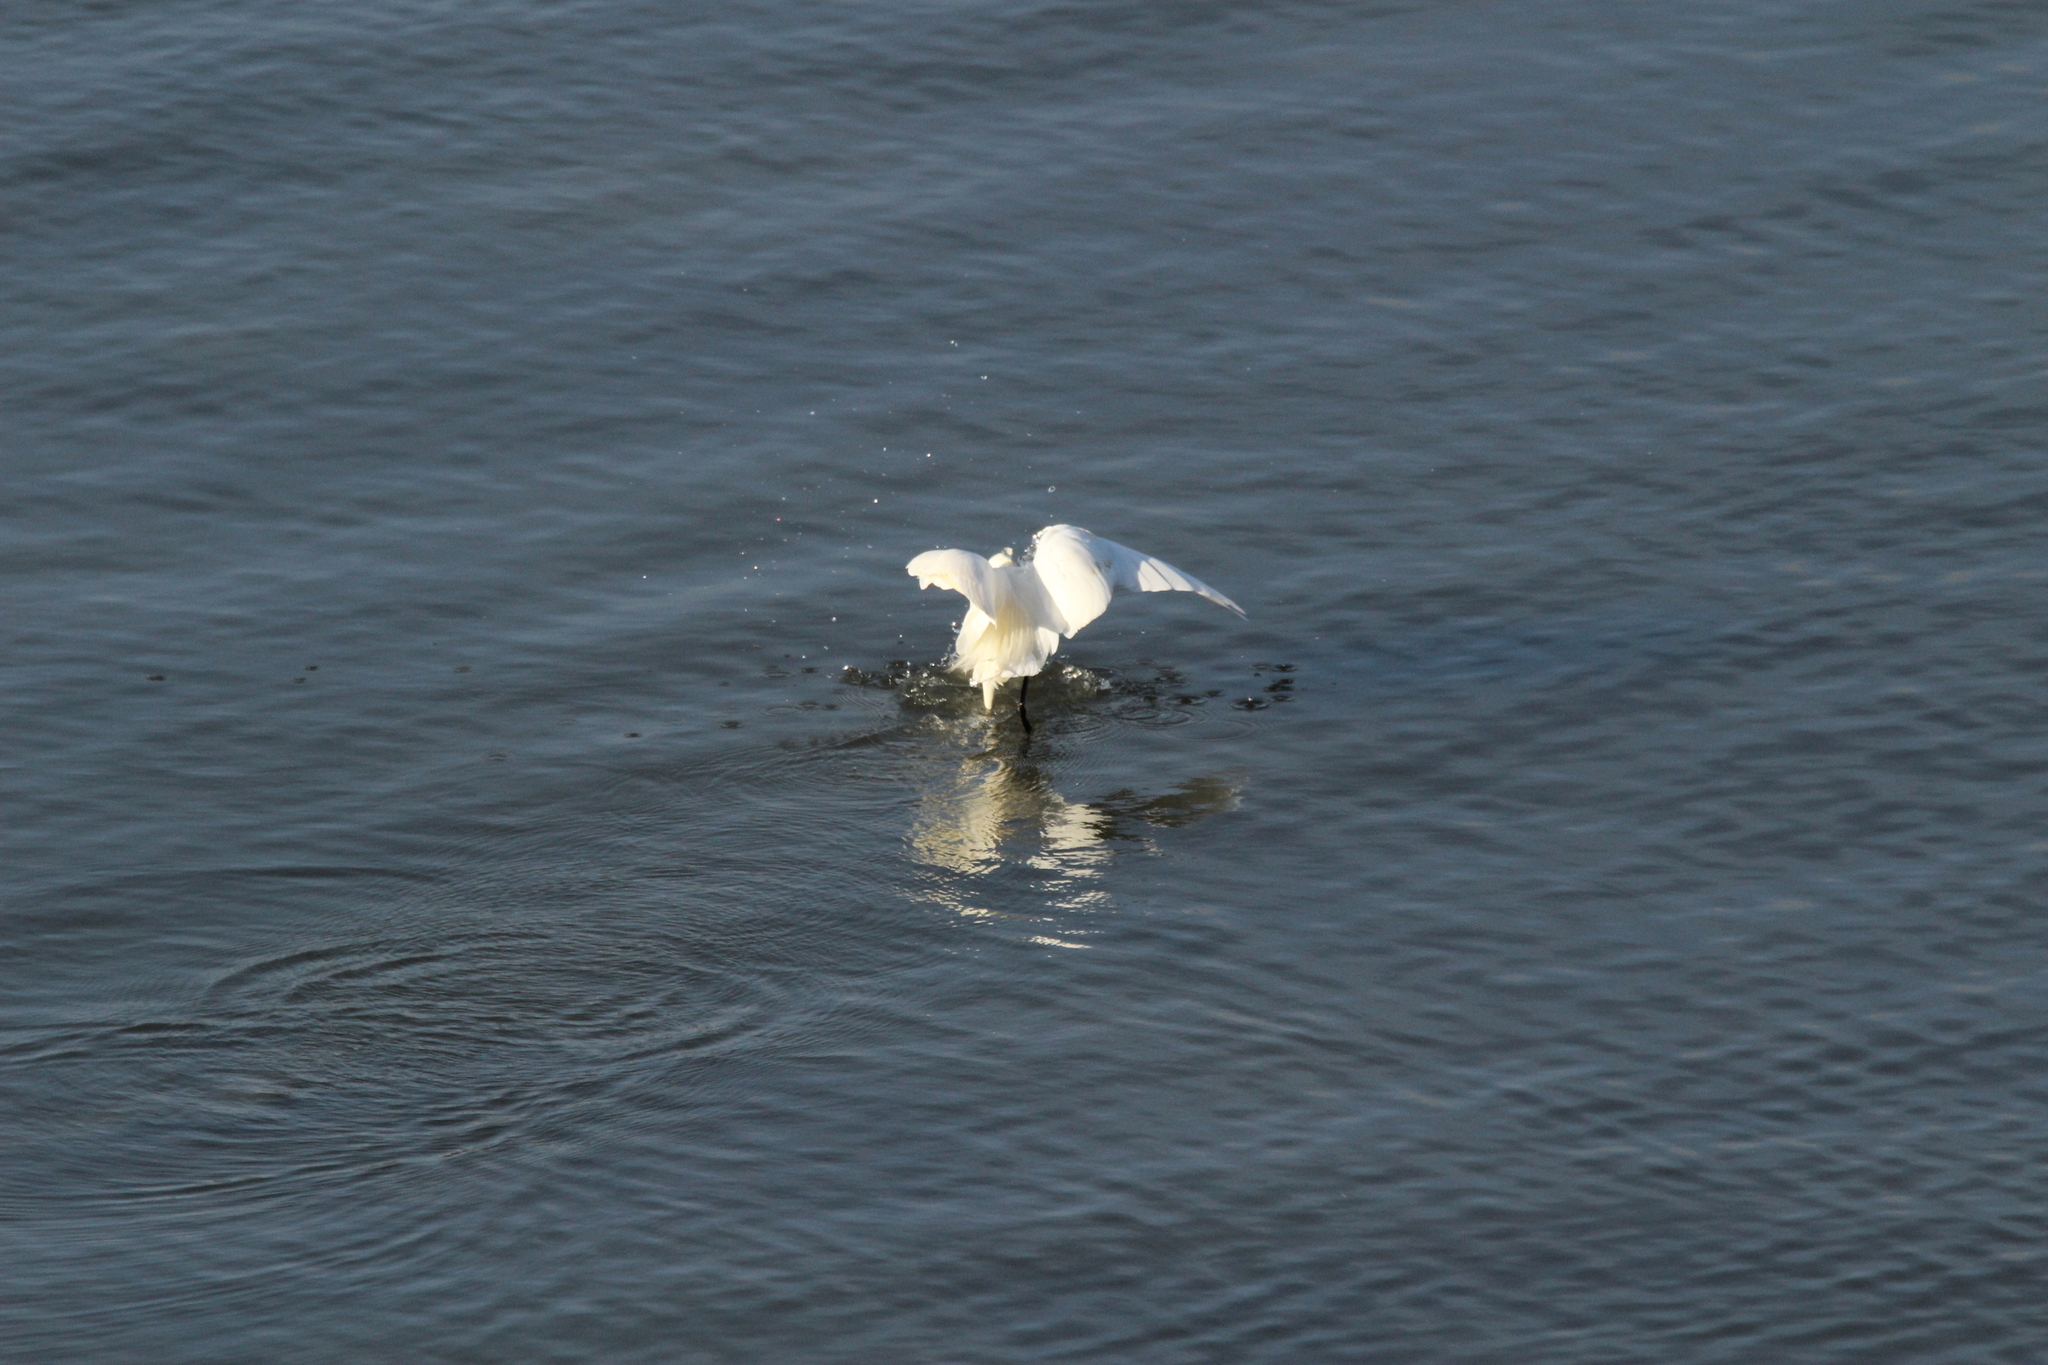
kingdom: Animalia
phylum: Chordata
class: Aves
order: Pelecaniformes
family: Ardeidae
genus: Ardea
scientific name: Ardea alba
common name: Great egret
